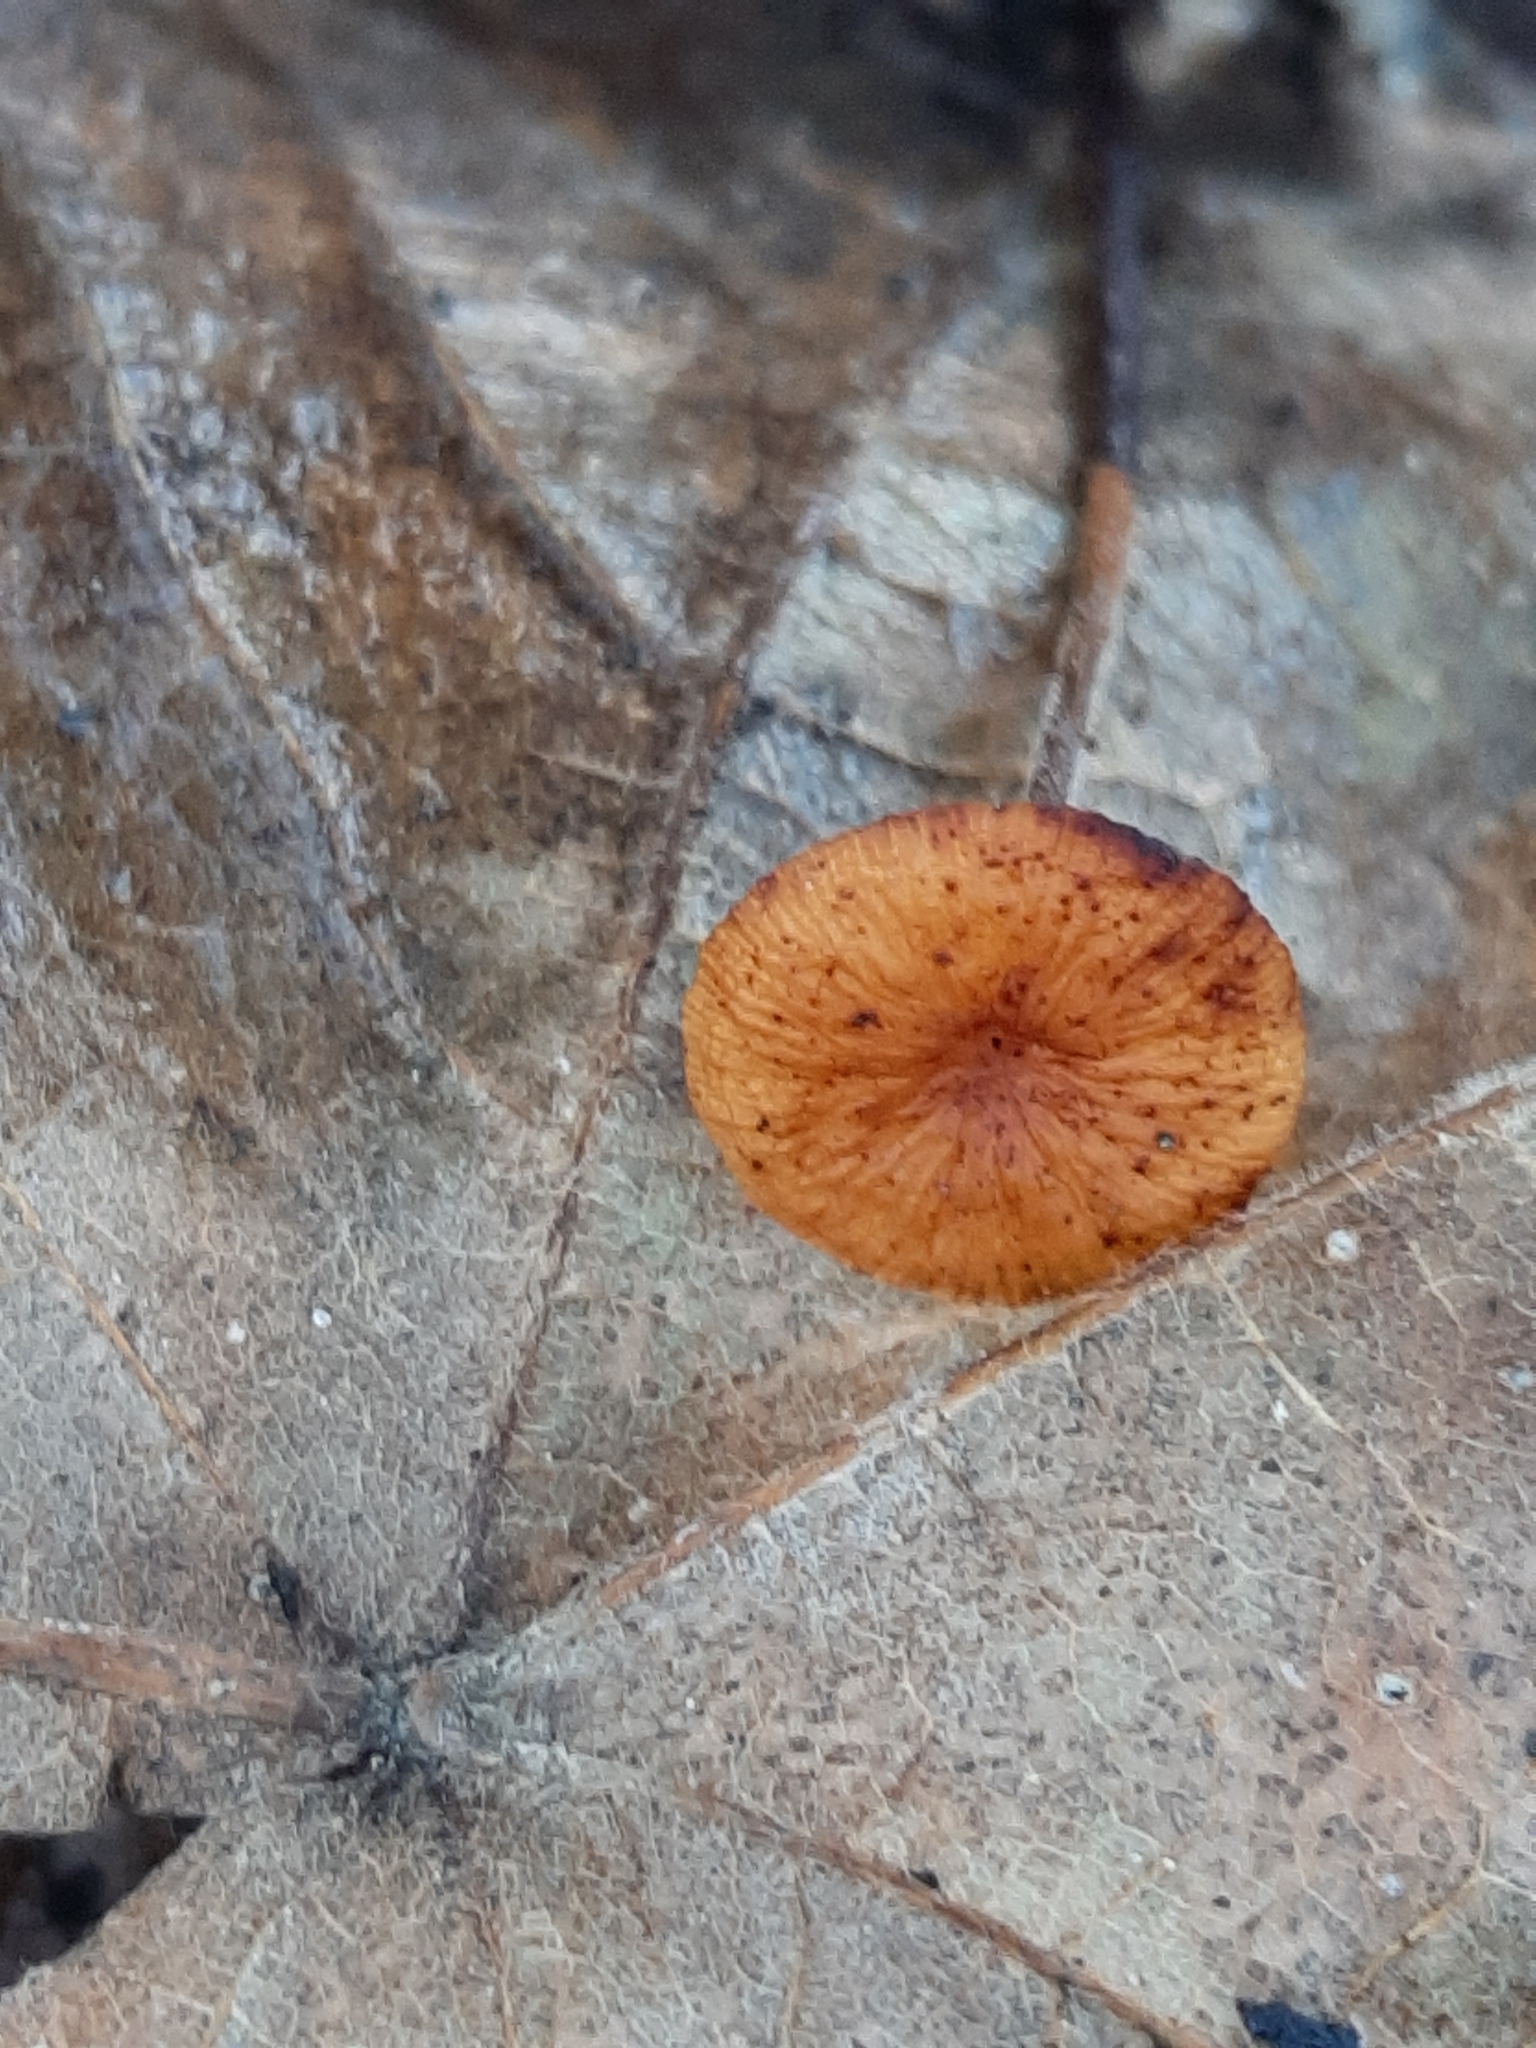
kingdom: Fungi
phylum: Basidiomycota
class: Agaricomycetes
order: Agaricales
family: Physalacriaceae
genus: Rhizomarasmius
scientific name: Rhizomarasmius pyrrhocephalus
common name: Hairy long stem marasmius
